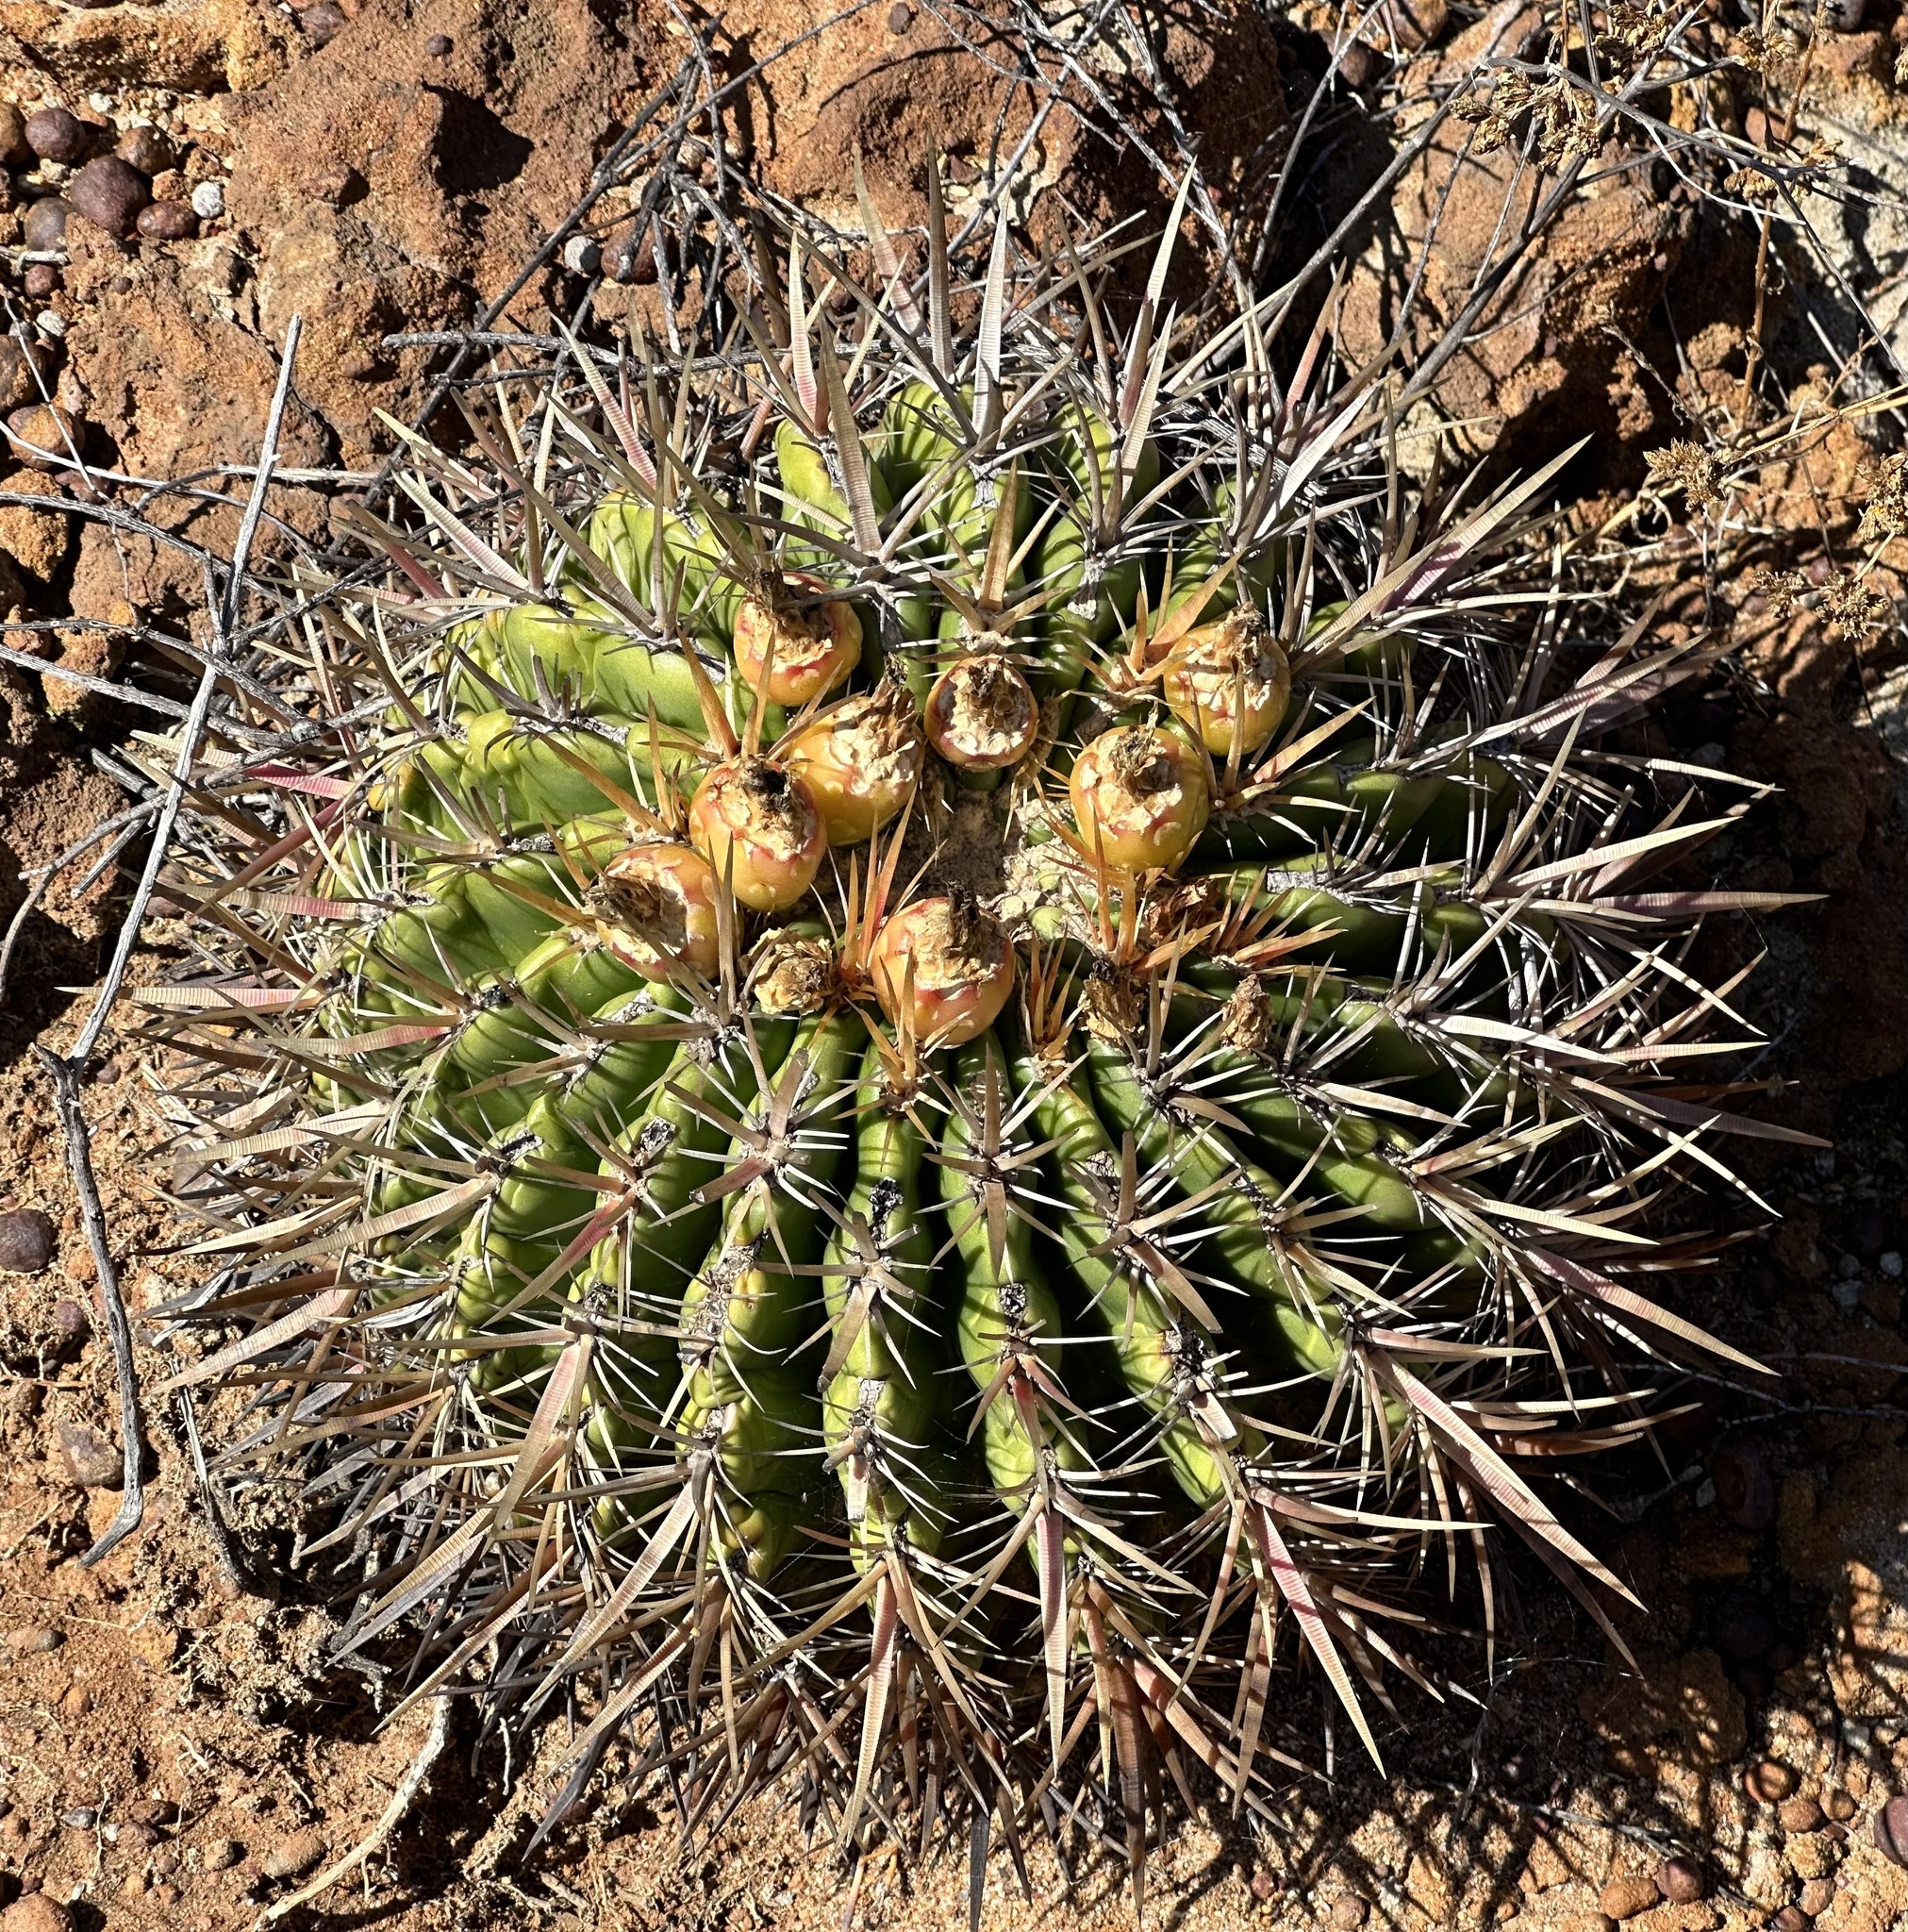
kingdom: Plantae
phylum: Tracheophyta
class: Magnoliopsida
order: Caryophyllales
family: Cactaceae
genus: Ferocactus
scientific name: Ferocactus viridescens
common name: San diego barrel cactus
